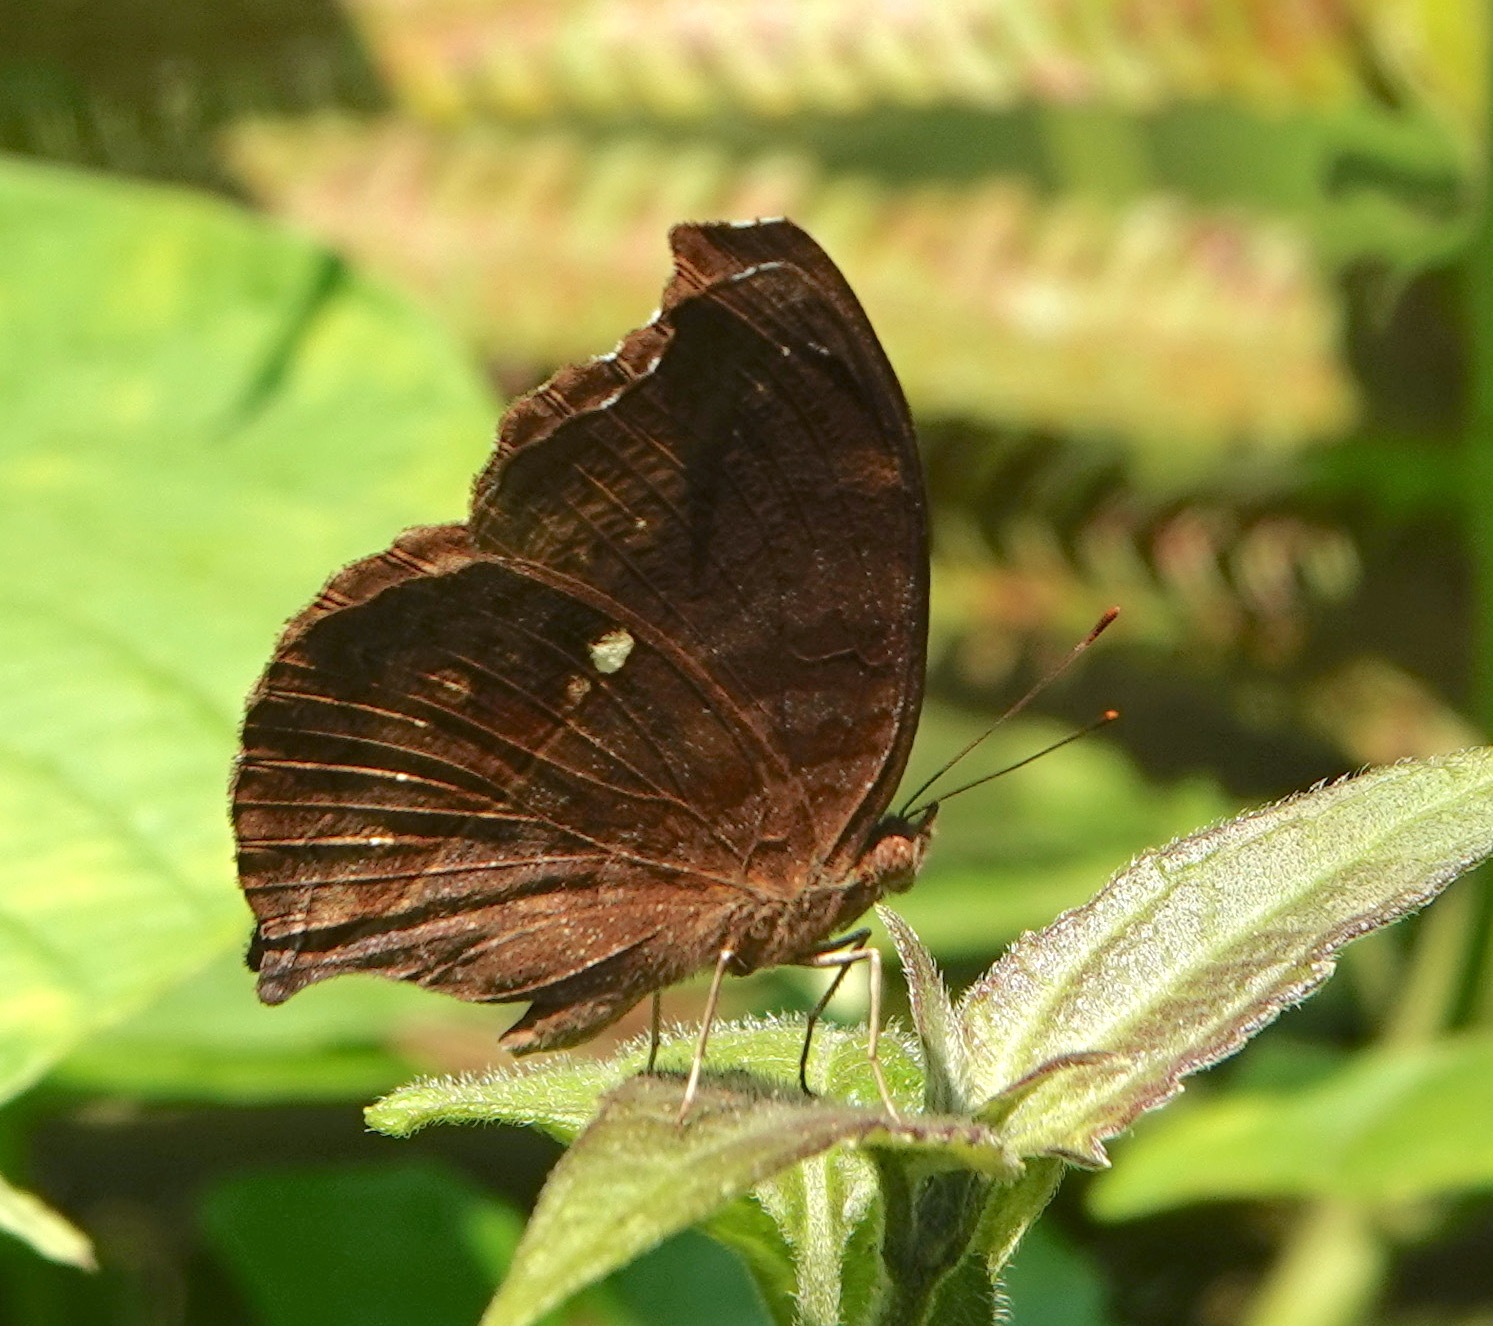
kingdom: Animalia
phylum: Arthropoda
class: Insecta
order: Lepidoptera
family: Nymphalidae
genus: Junonia
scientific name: Junonia hedonia
